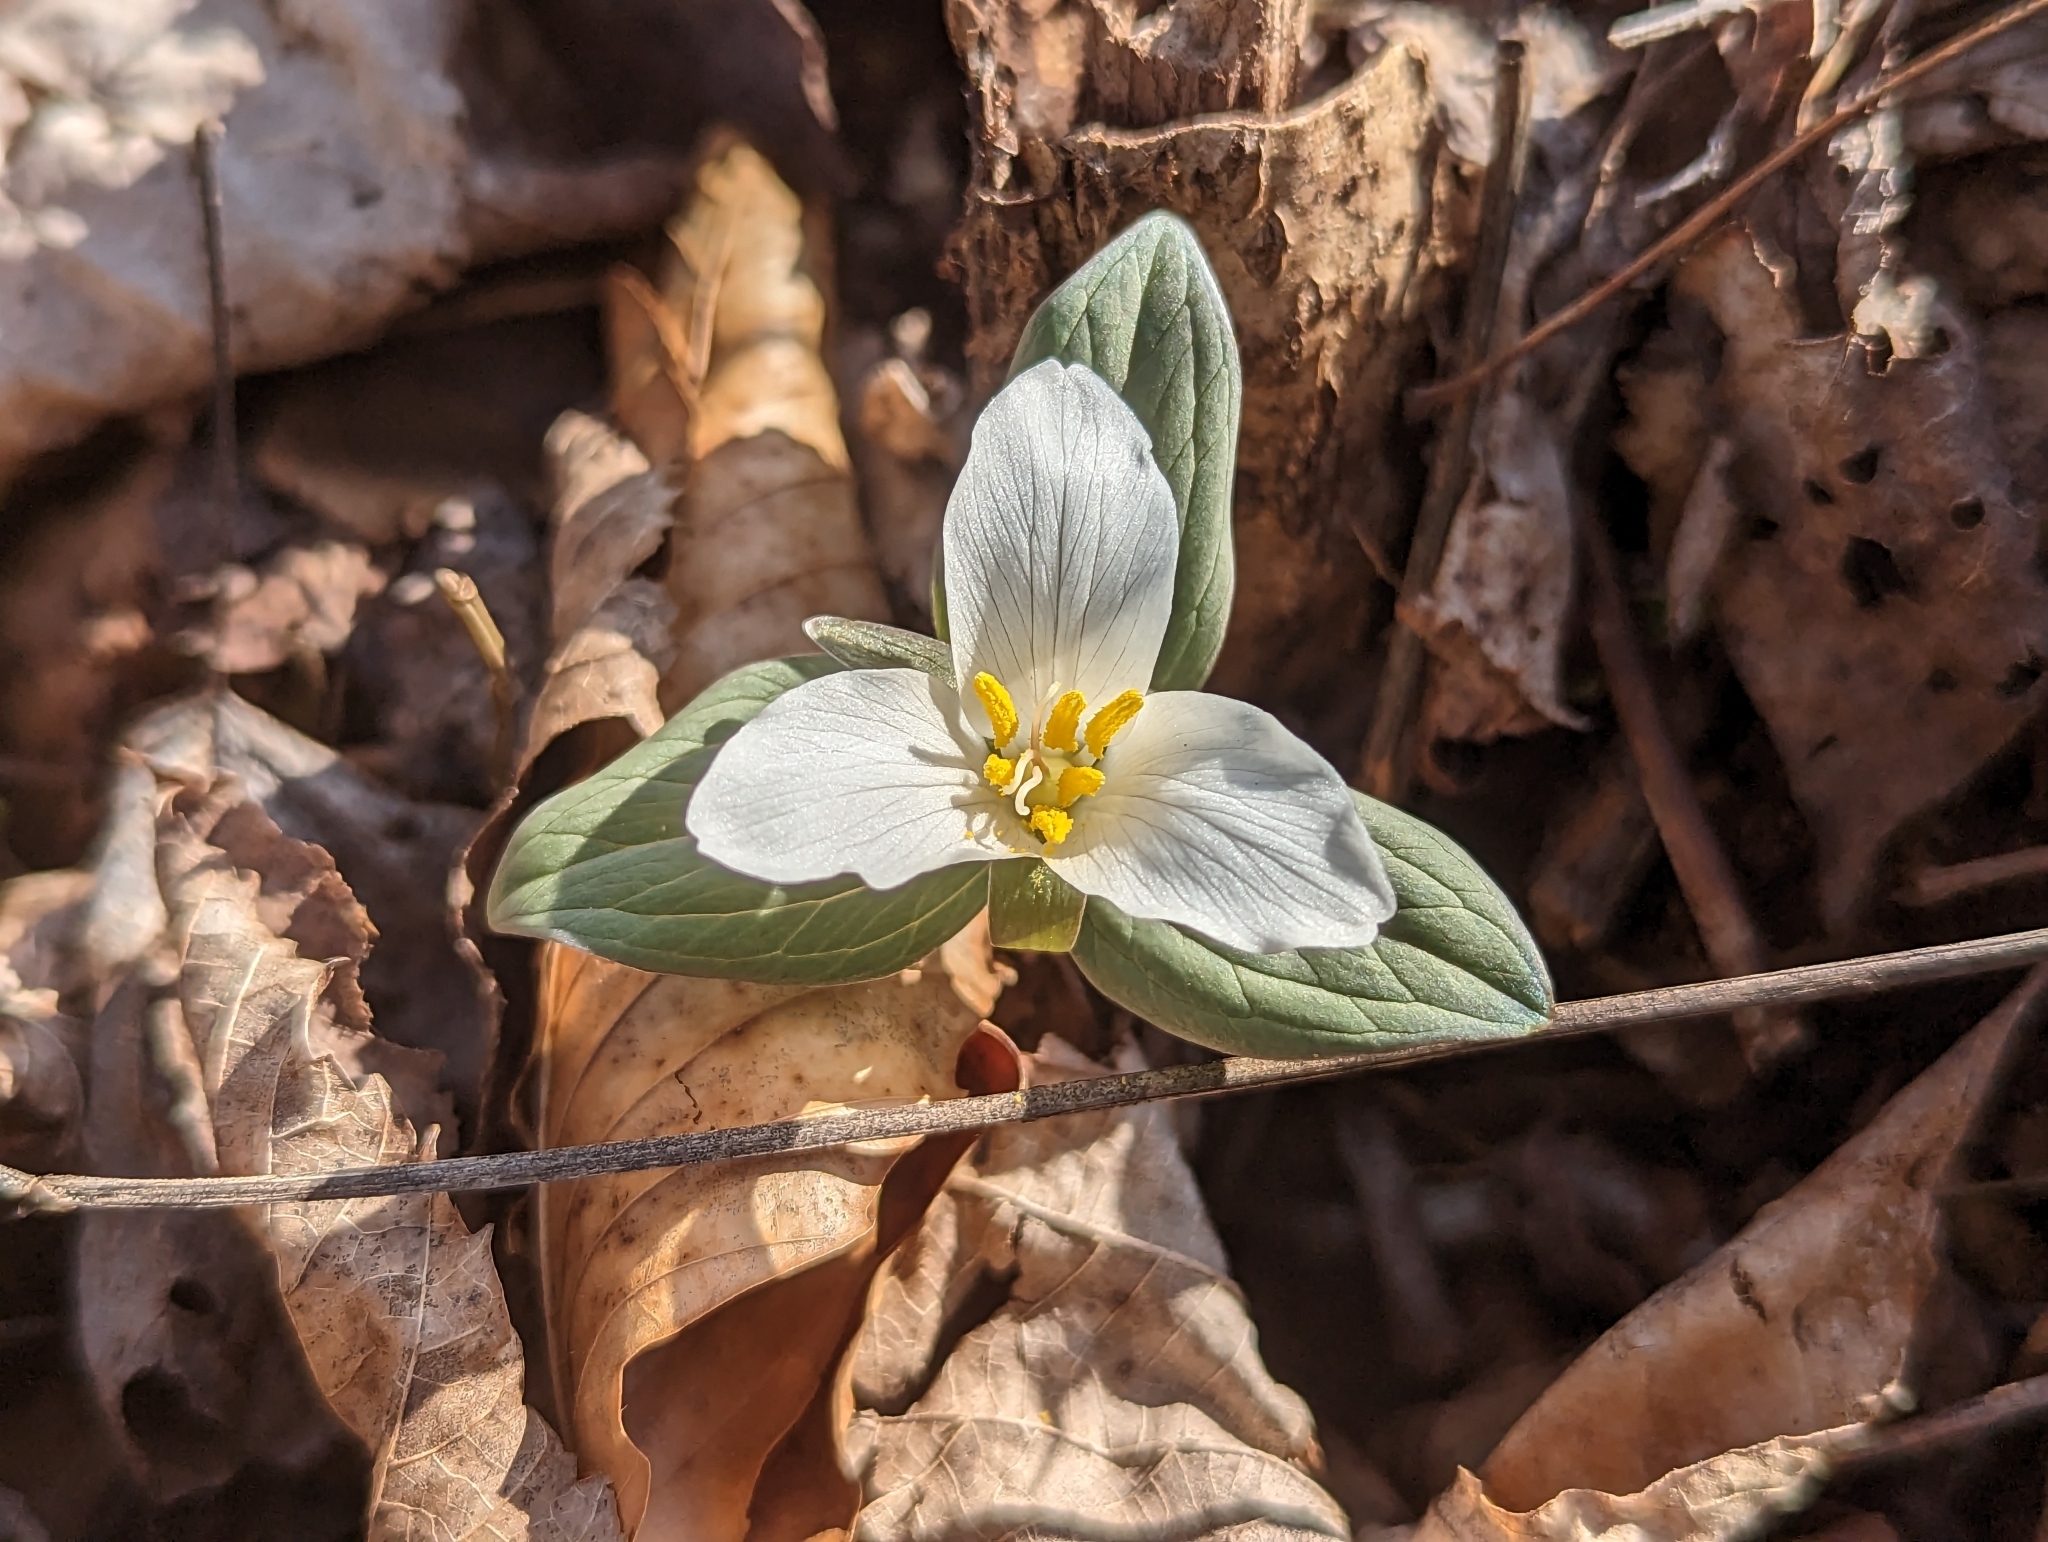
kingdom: Plantae
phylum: Tracheophyta
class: Liliopsida
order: Liliales
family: Melanthiaceae
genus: Trillium
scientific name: Trillium nivale
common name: Dwarf white trillium
